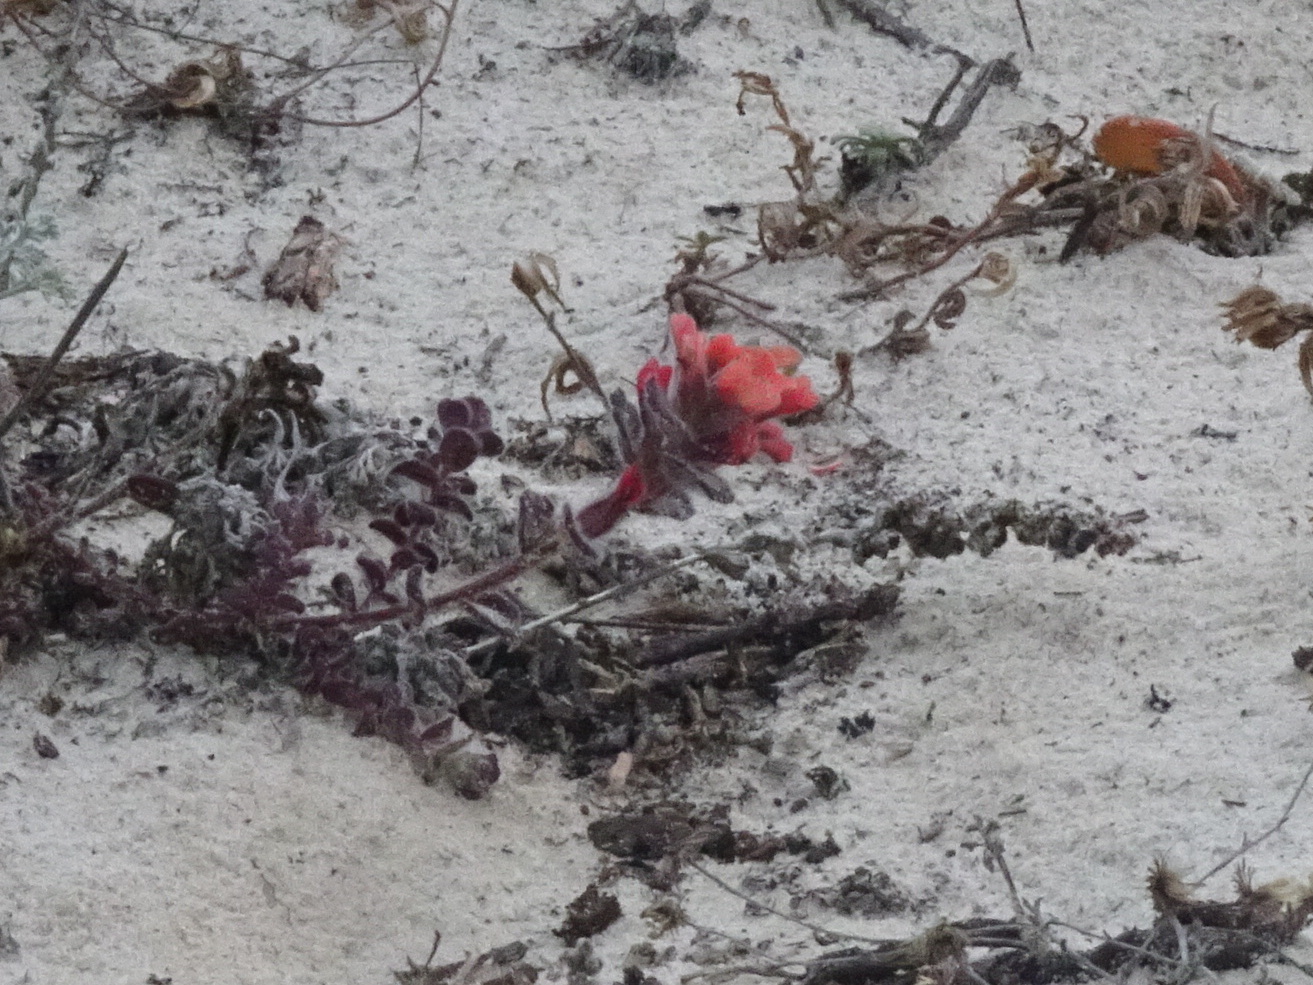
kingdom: Plantae
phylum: Tracheophyta
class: Magnoliopsida
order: Lamiales
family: Orobanchaceae
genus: Castilleja
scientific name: Castilleja latifolia
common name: Monterey indian paintbrush
